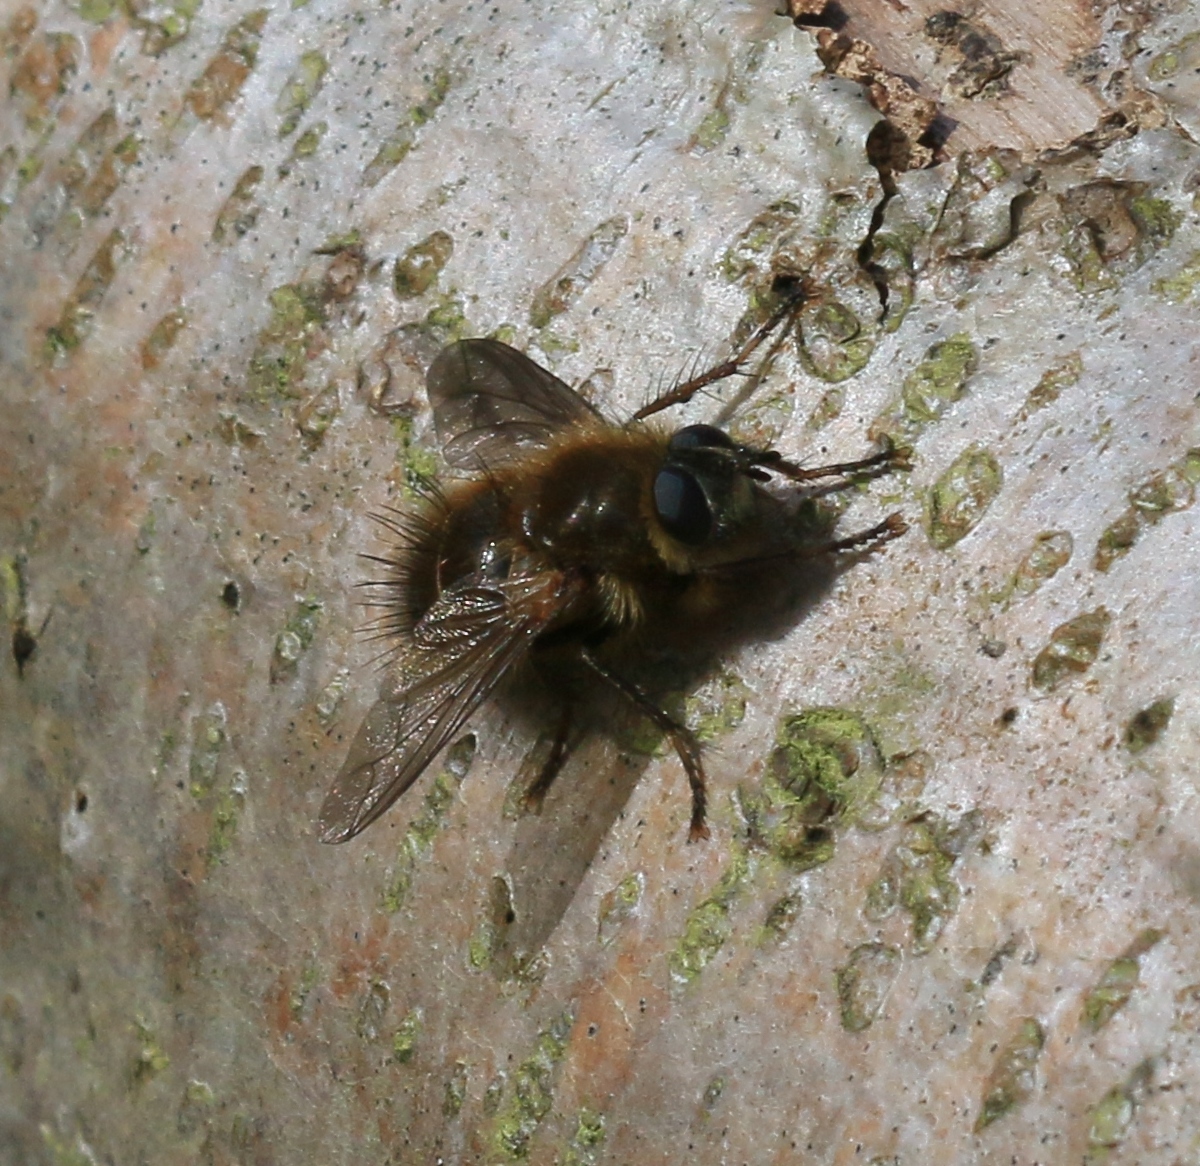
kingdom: Animalia
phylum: Arthropoda
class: Insecta
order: Diptera
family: Tachinidae
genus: Tachina
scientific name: Tachina ursina
